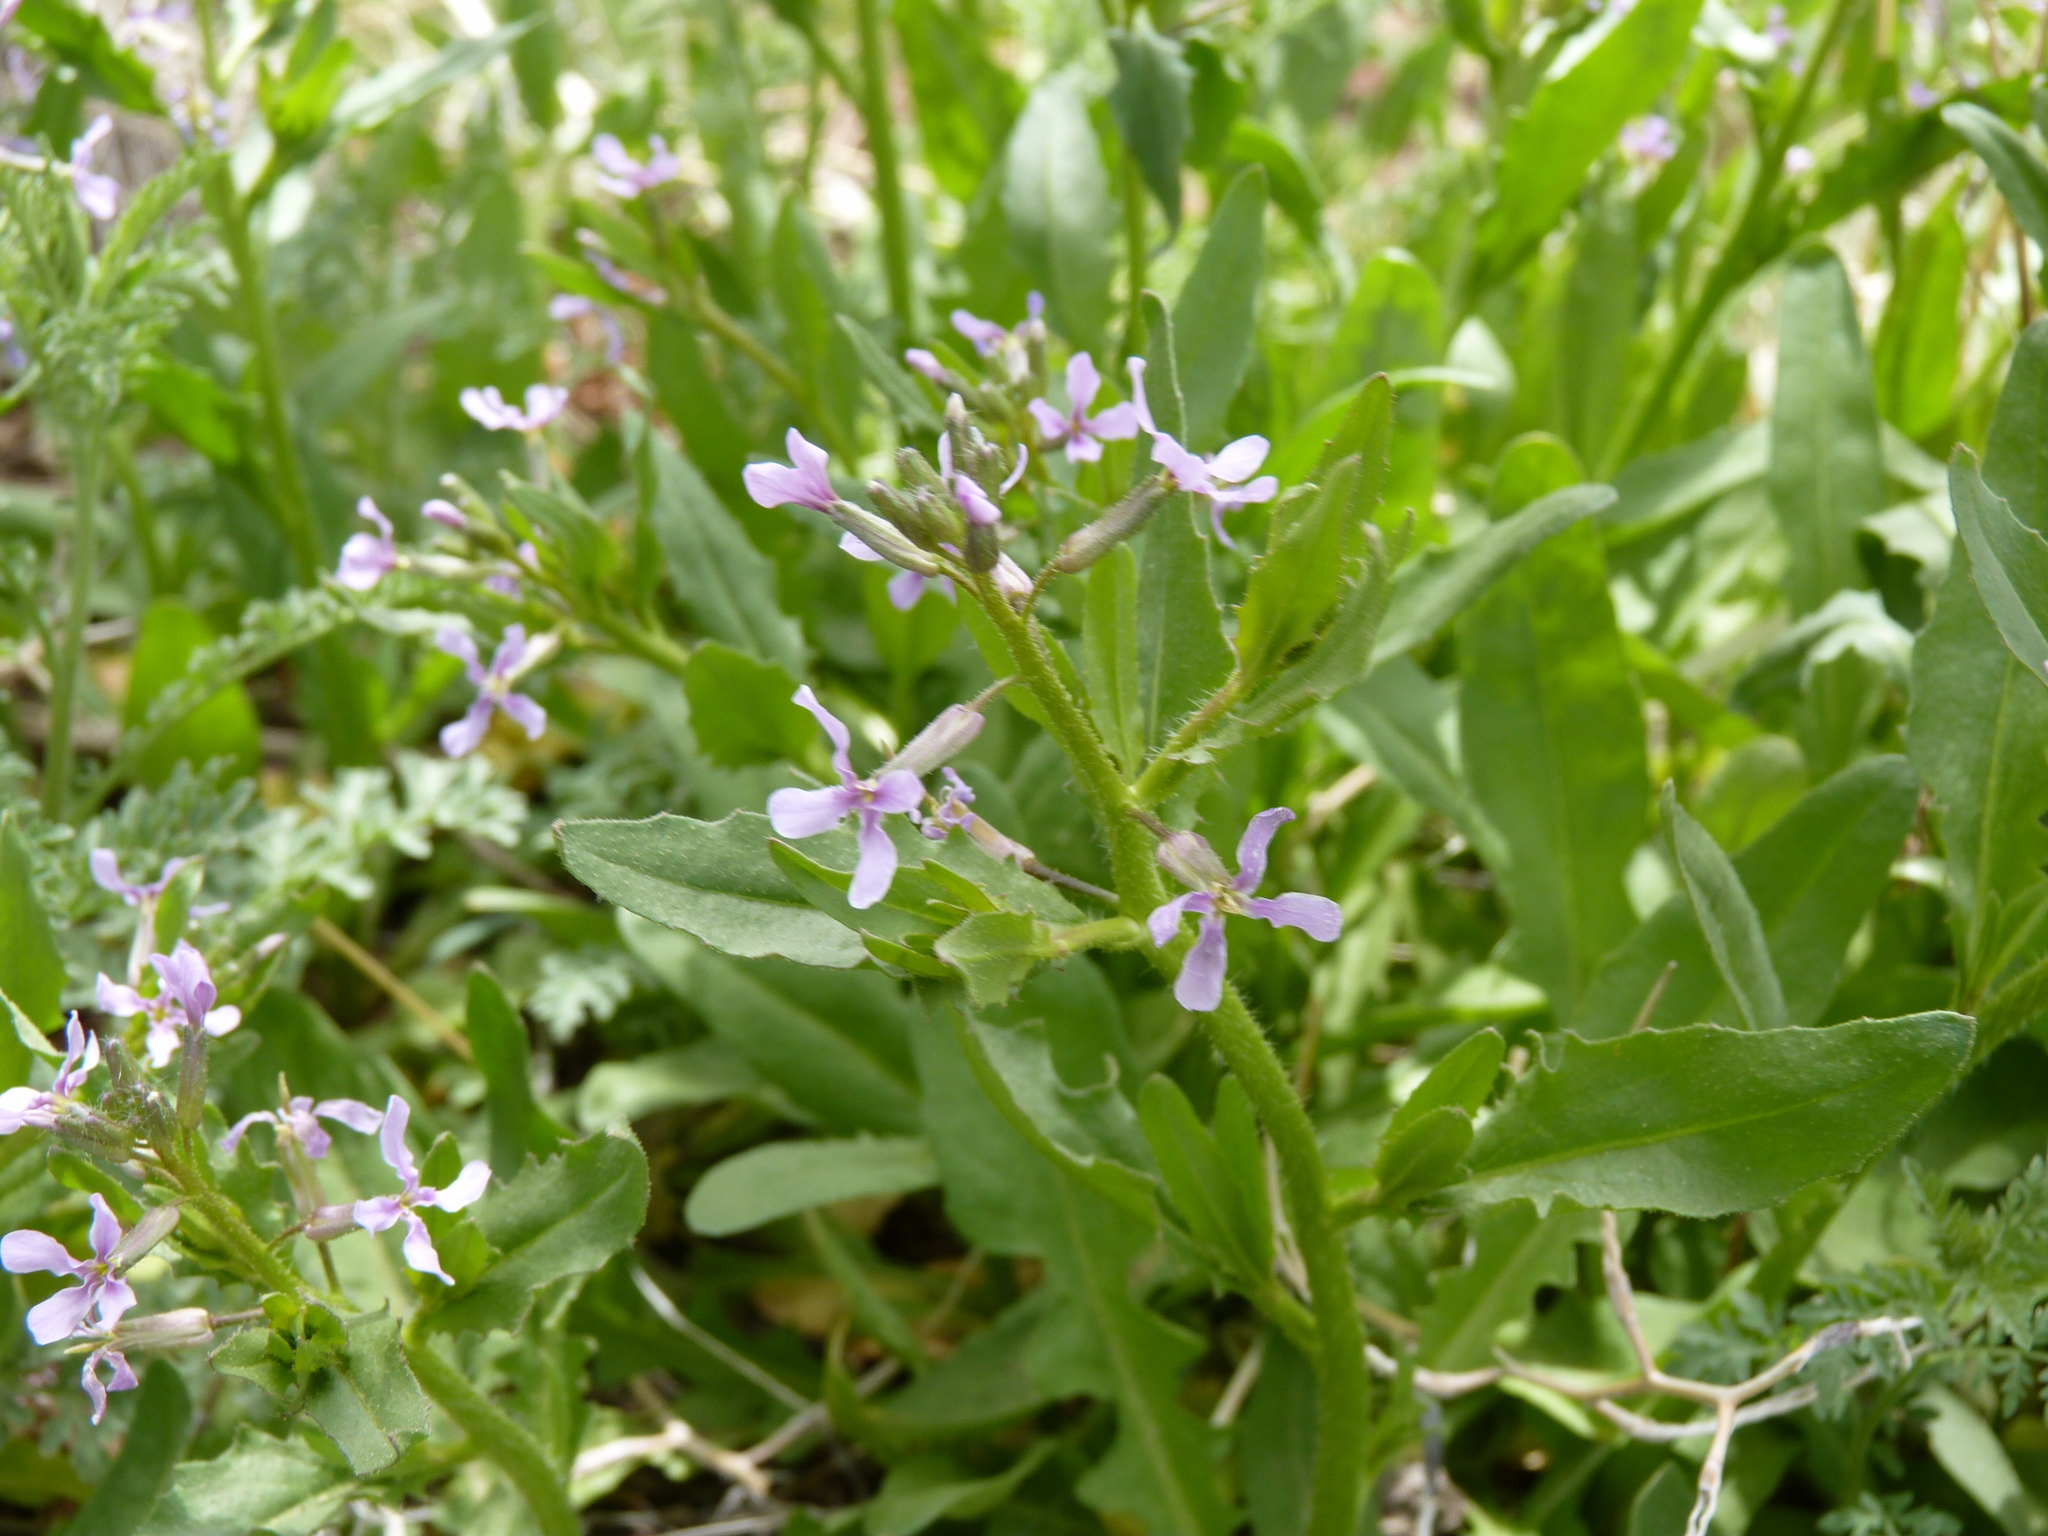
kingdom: Plantae
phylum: Tracheophyta
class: Magnoliopsida
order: Brassicales
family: Brassicaceae
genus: Chorispora
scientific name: Chorispora tenella
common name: Crossflower
